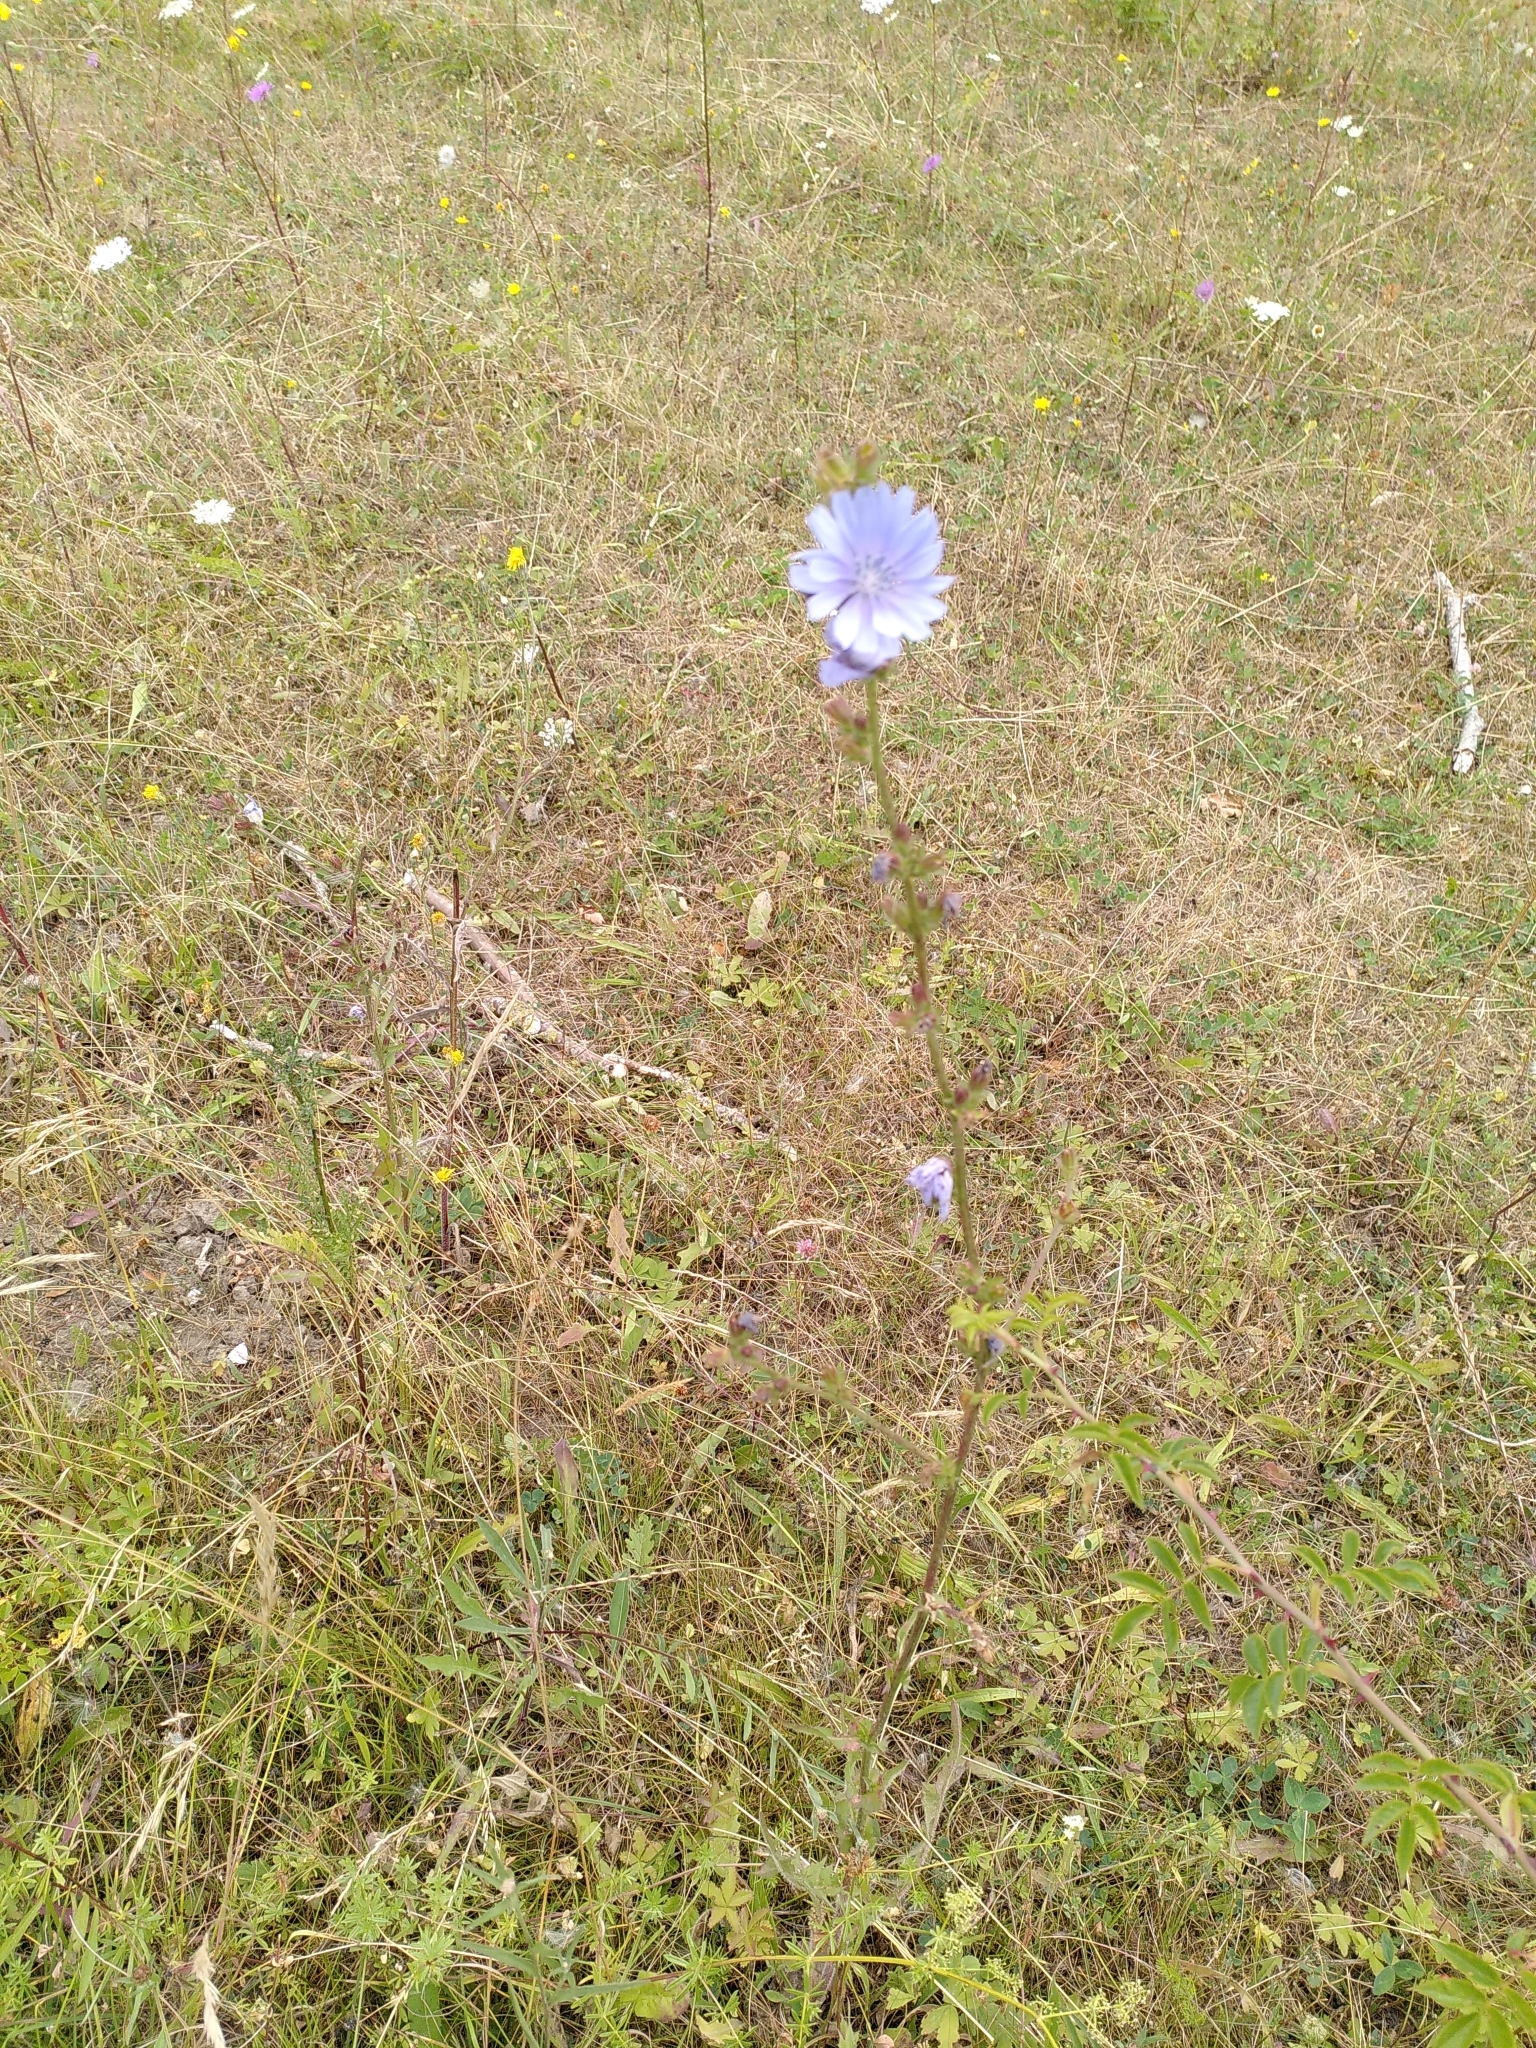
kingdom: Plantae
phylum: Tracheophyta
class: Magnoliopsida
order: Asterales
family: Asteraceae
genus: Cichorium
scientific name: Cichorium intybus
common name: Chicory
